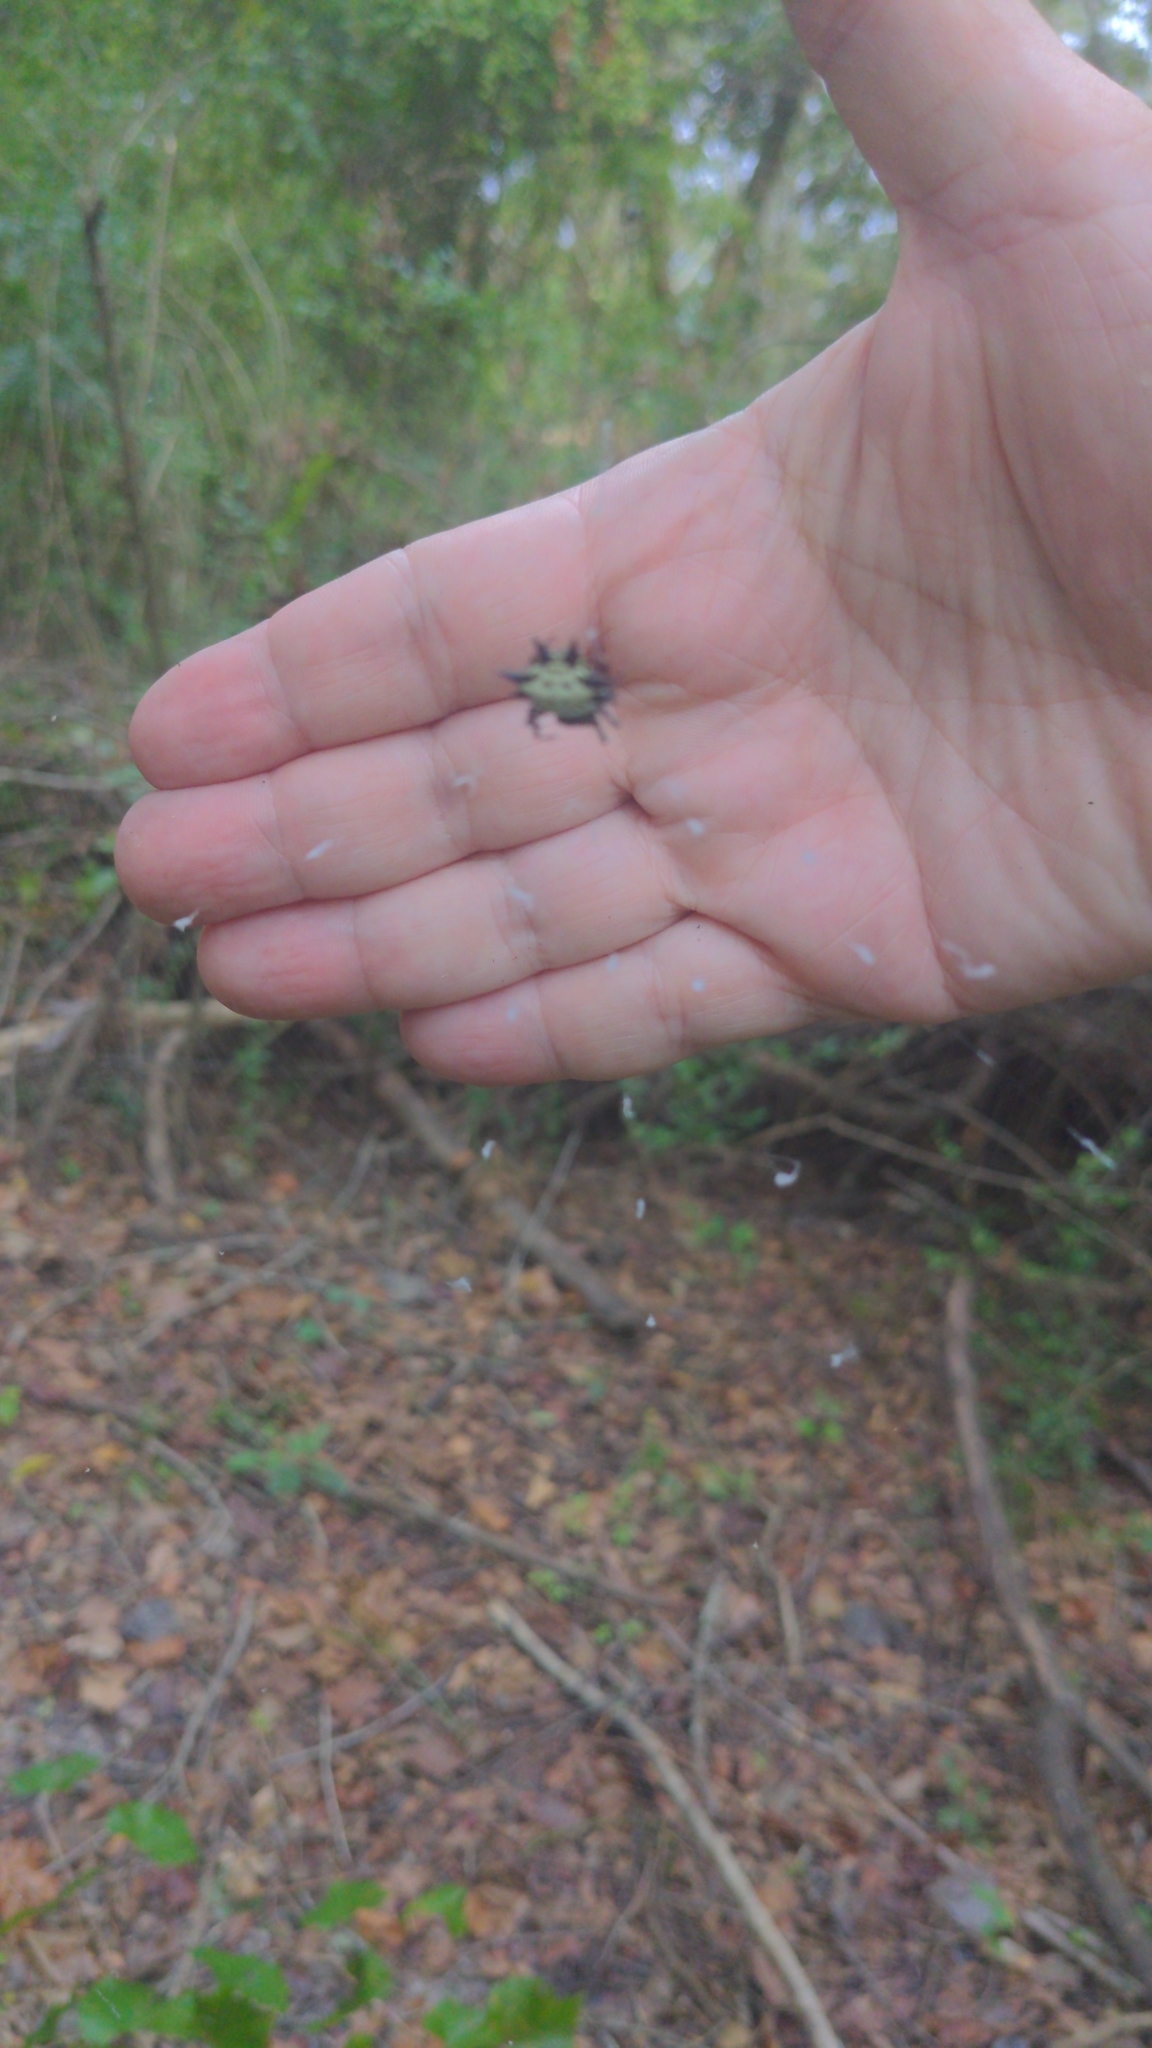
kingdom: Animalia
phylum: Arthropoda
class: Arachnida
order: Araneae
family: Araneidae
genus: Gasteracantha
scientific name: Gasteracantha cancriformis
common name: Orb weavers
